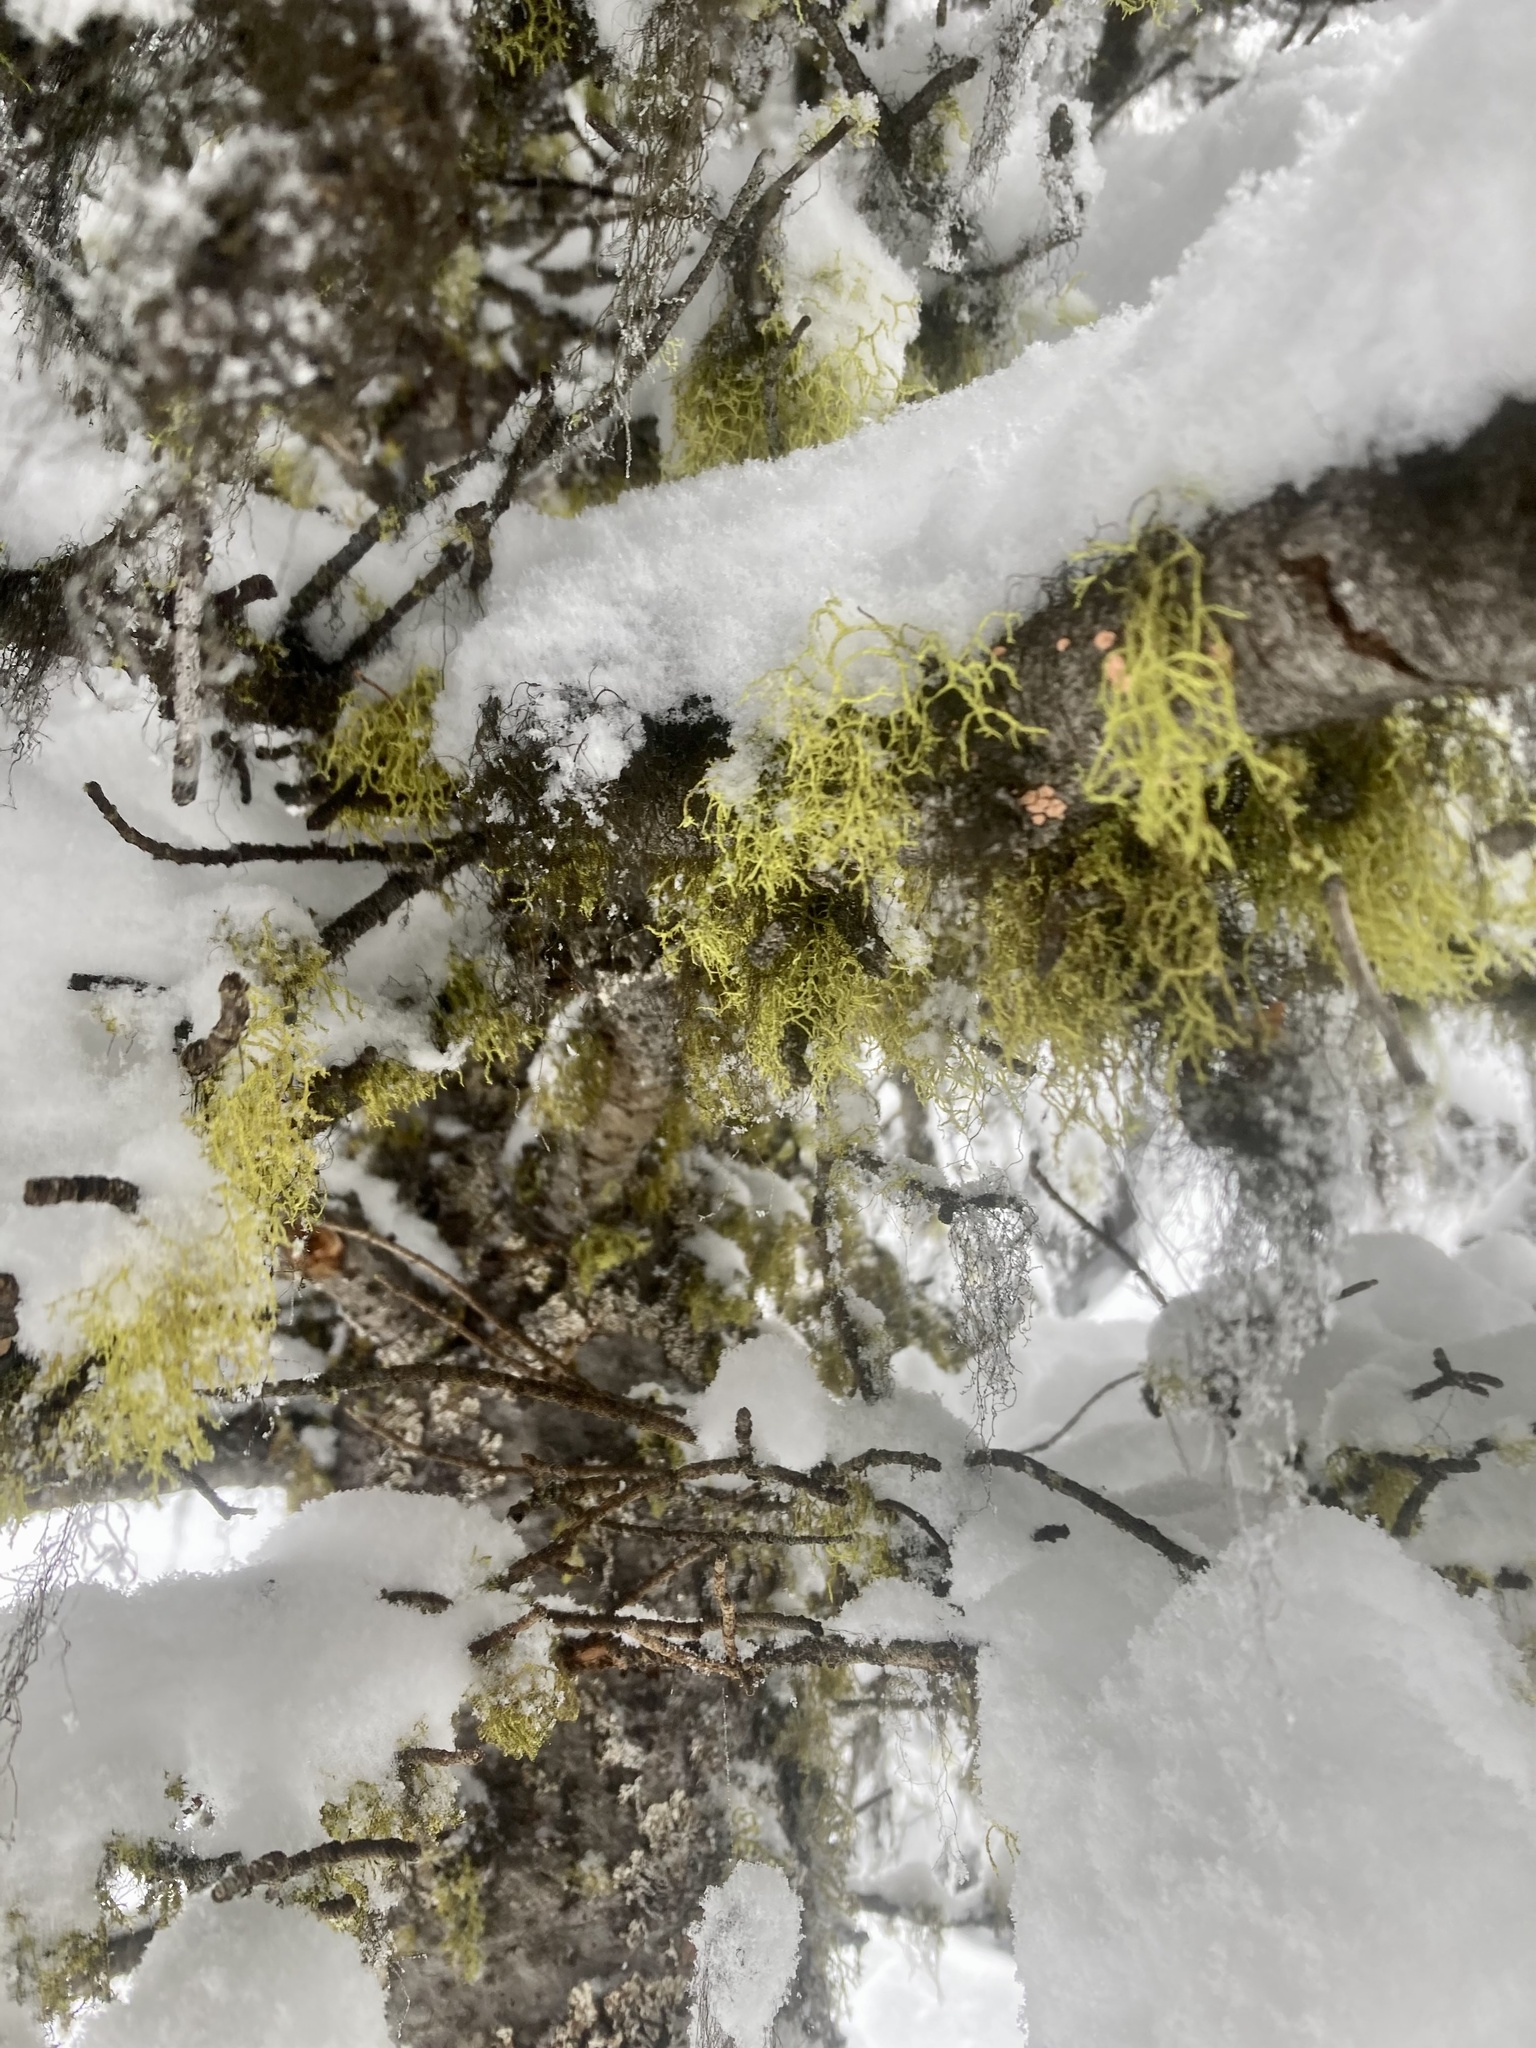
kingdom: Fungi
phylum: Ascomycota
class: Lecanoromycetes
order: Lecanorales
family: Parmeliaceae
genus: Letharia
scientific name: Letharia vulpina
